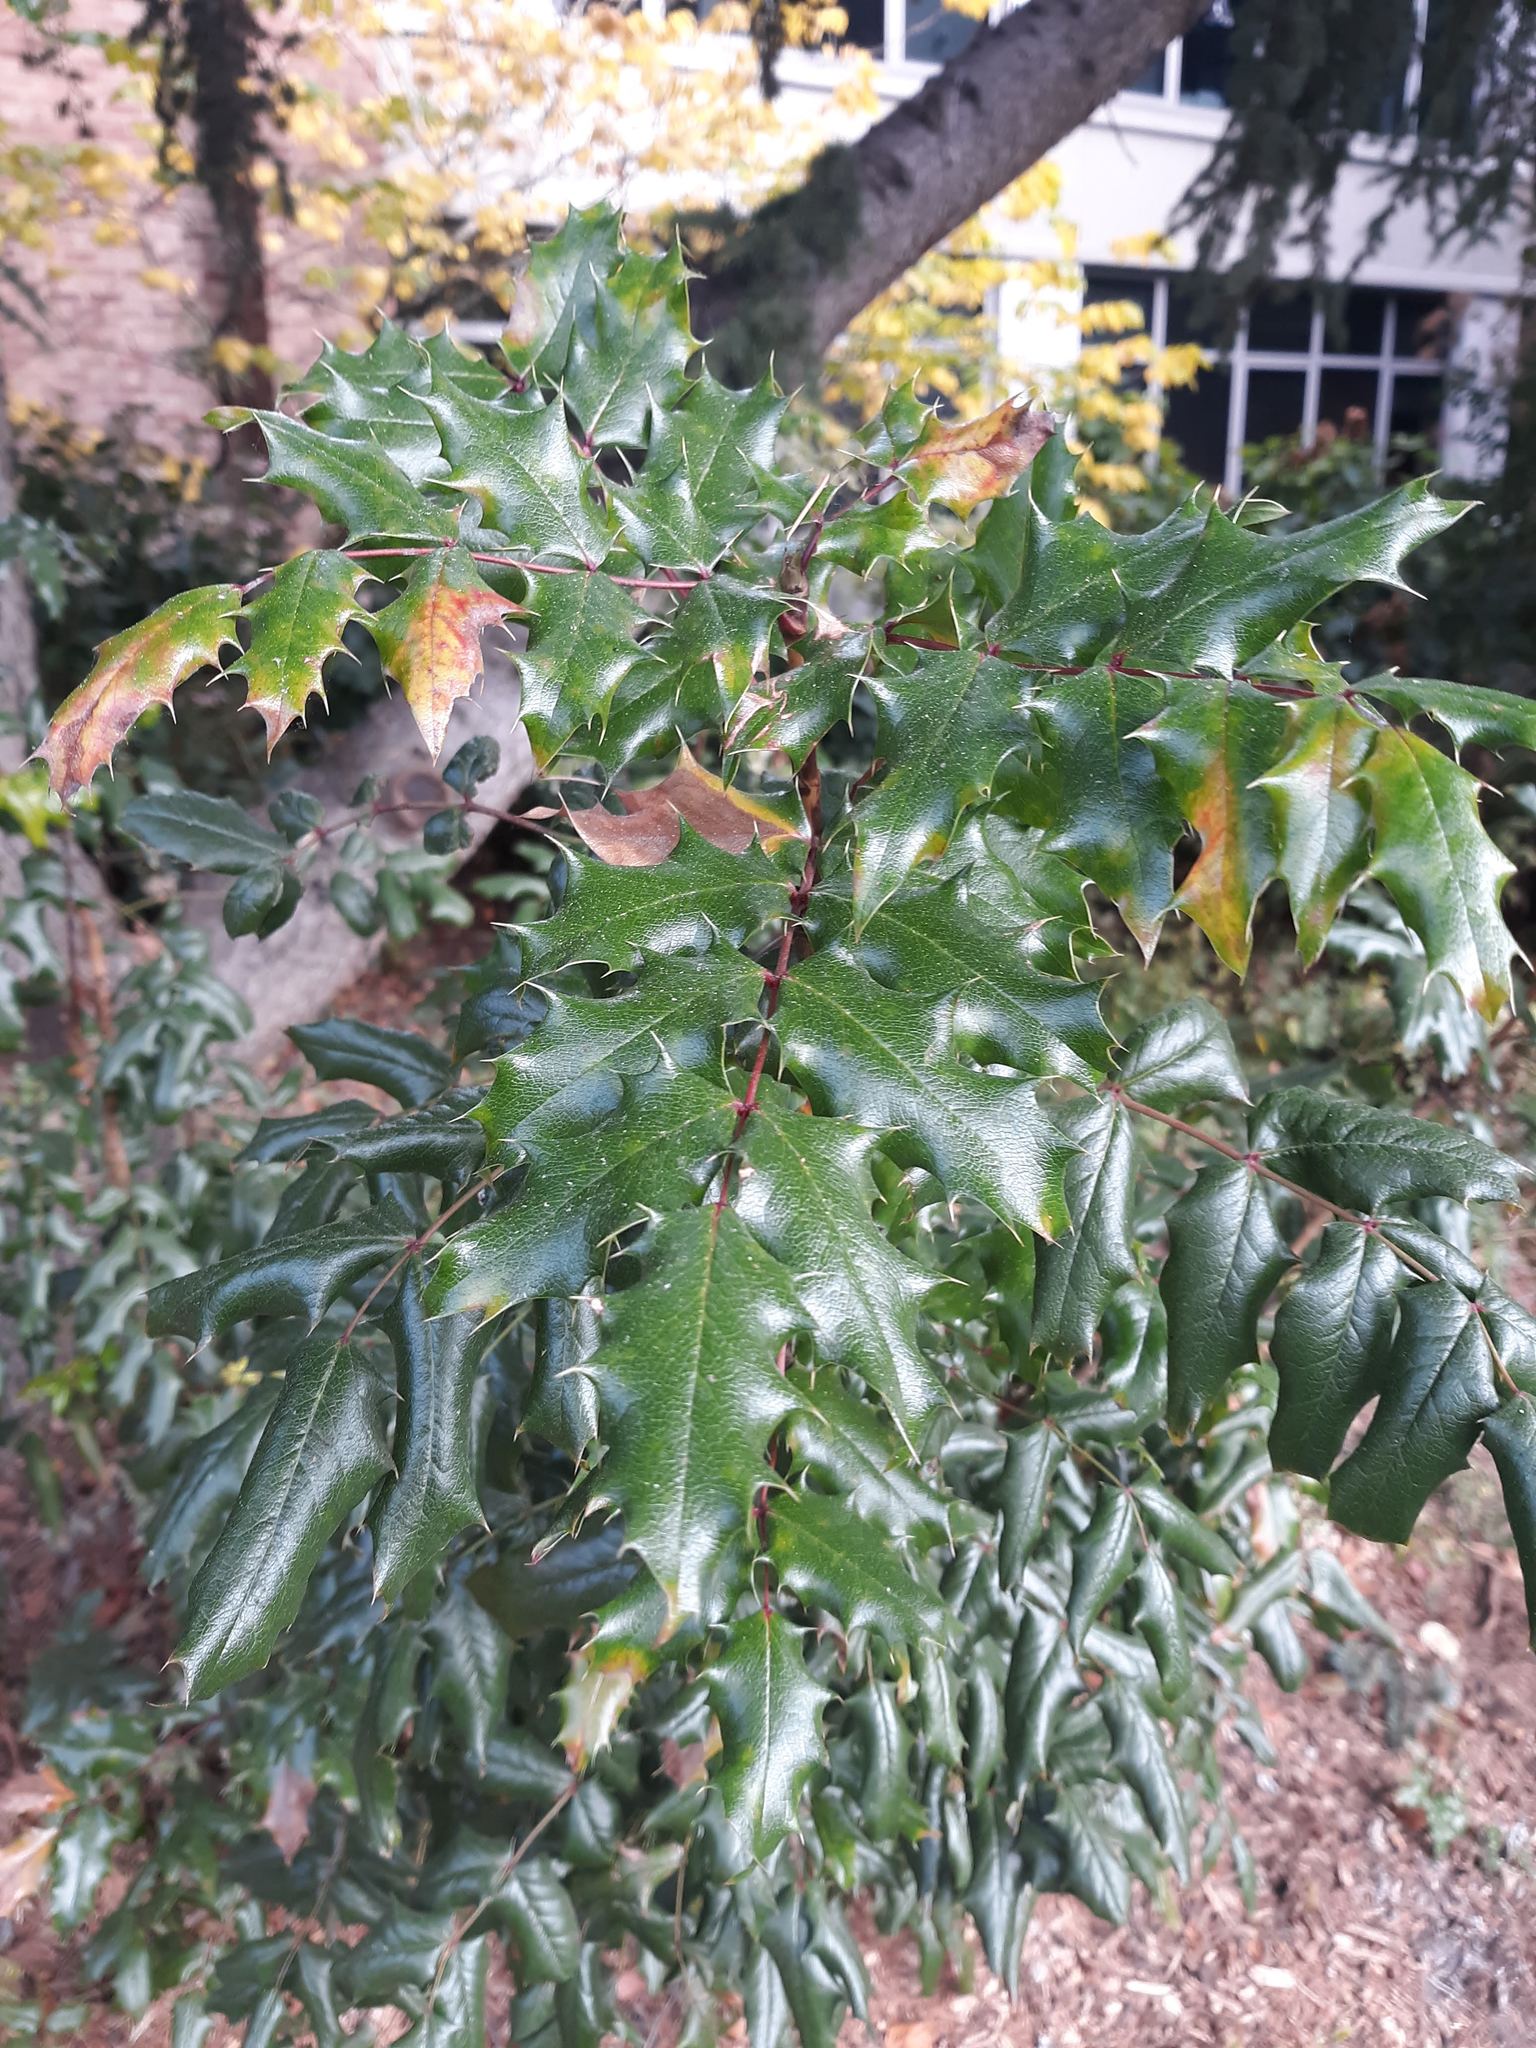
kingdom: Plantae
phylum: Tracheophyta
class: Magnoliopsida
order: Ranunculales
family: Berberidaceae
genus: Mahonia
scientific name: Mahonia aquifolium
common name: Oregon-grape
